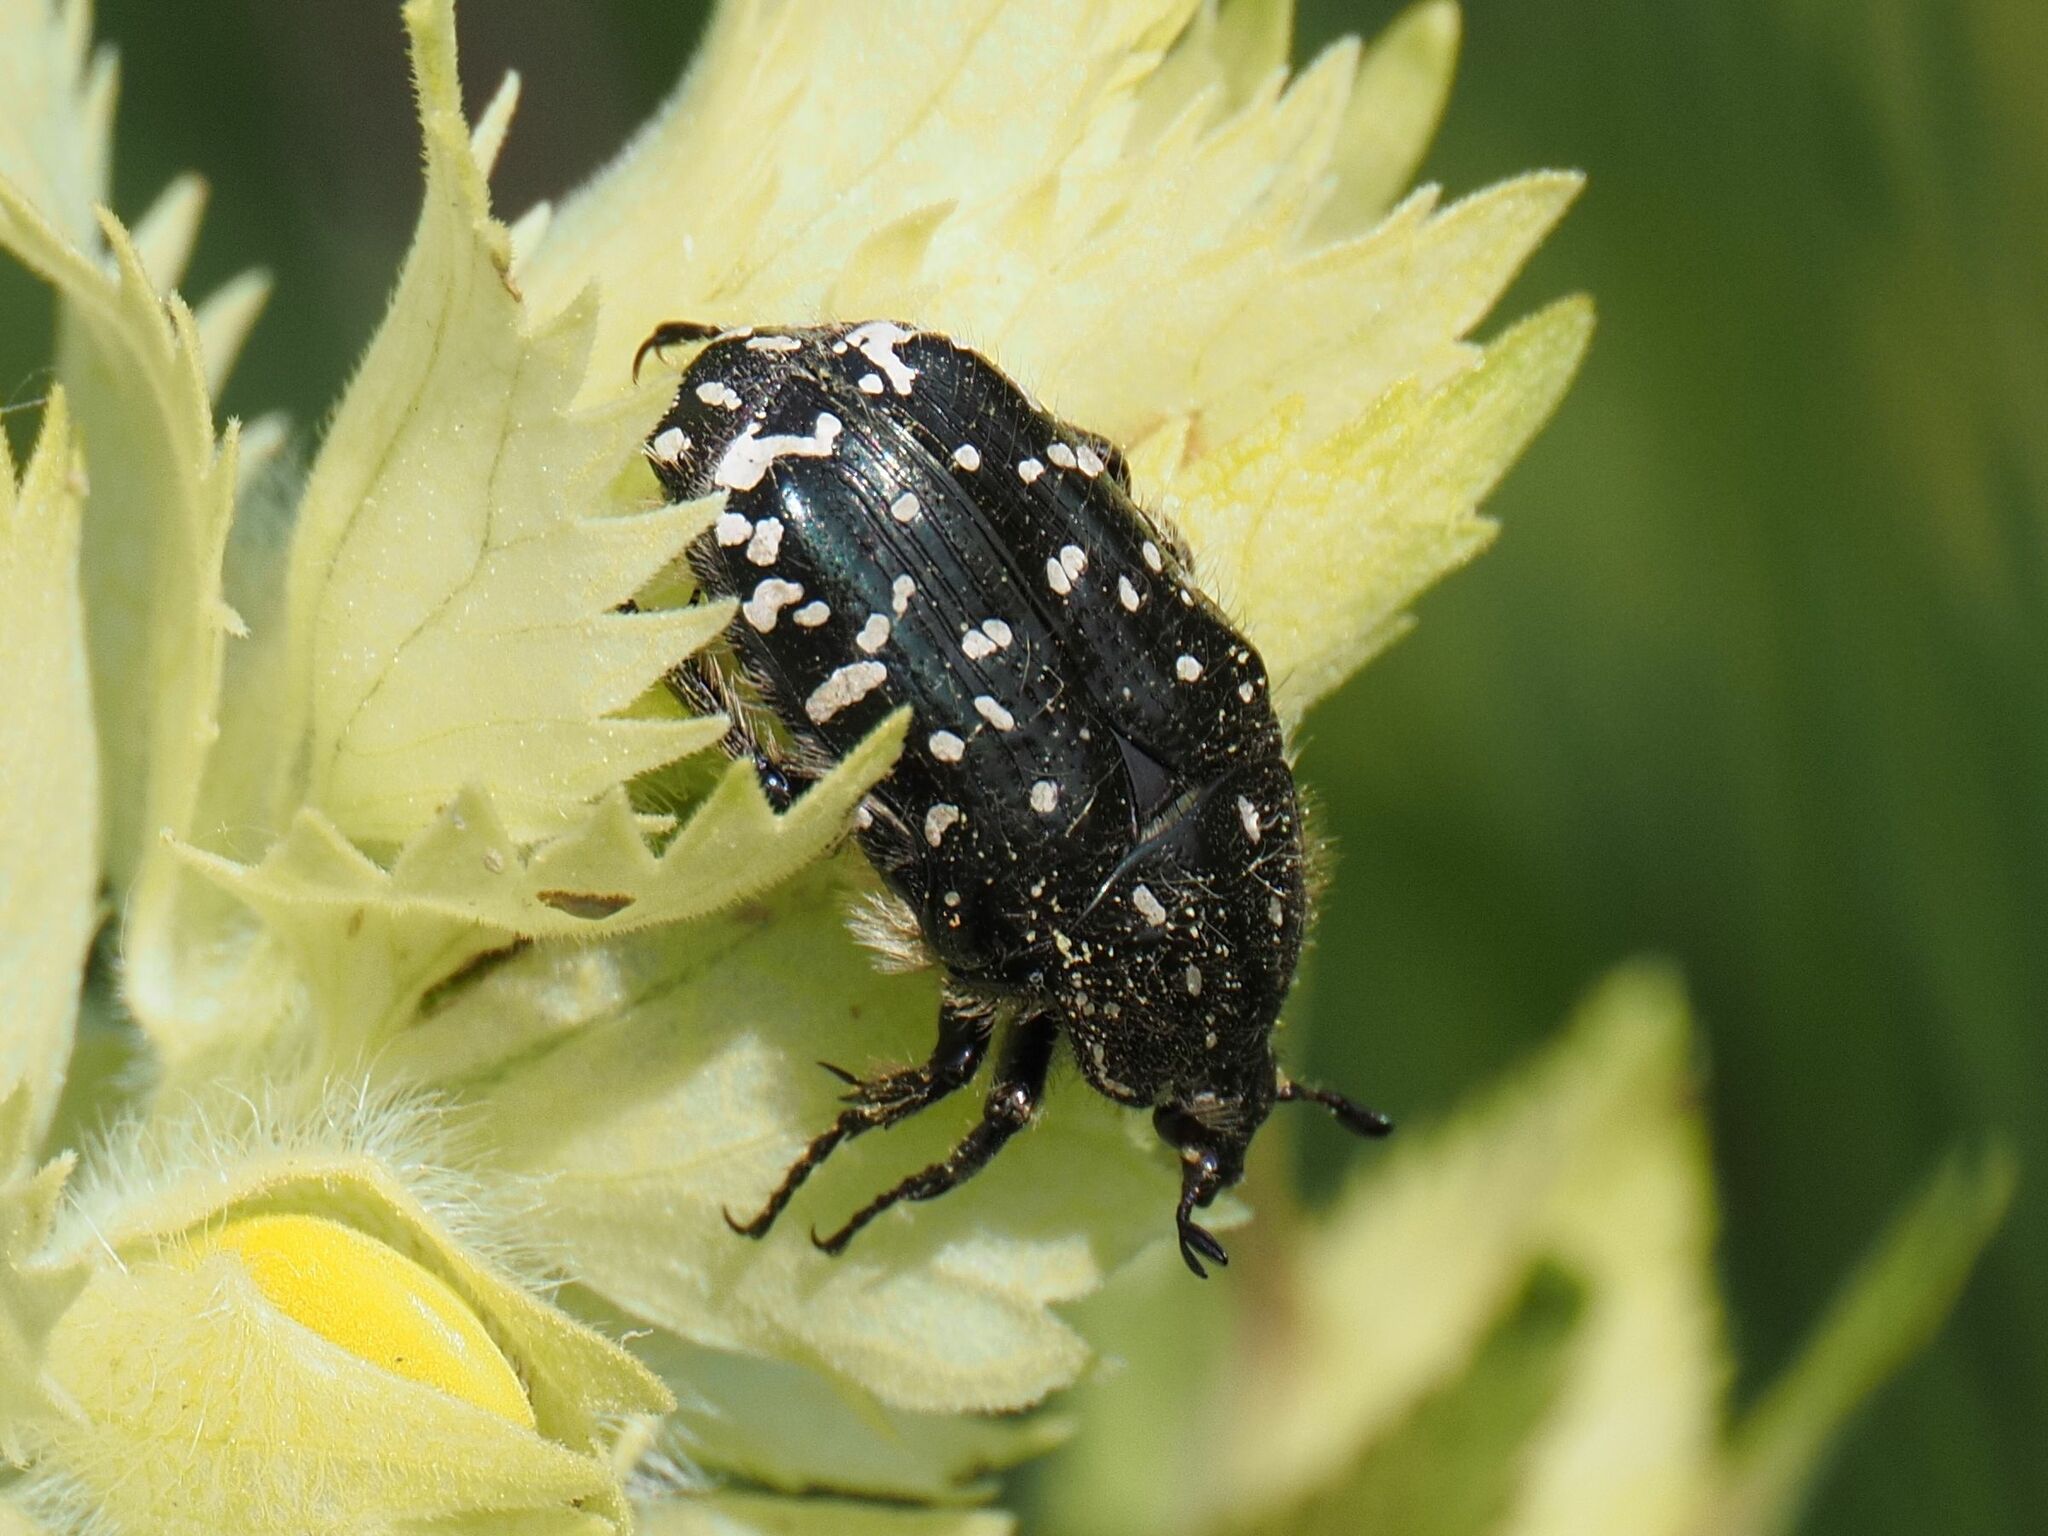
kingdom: Animalia
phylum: Arthropoda
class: Insecta
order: Coleoptera
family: Scarabaeidae
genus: Oxythyrea
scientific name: Oxythyrea funesta
